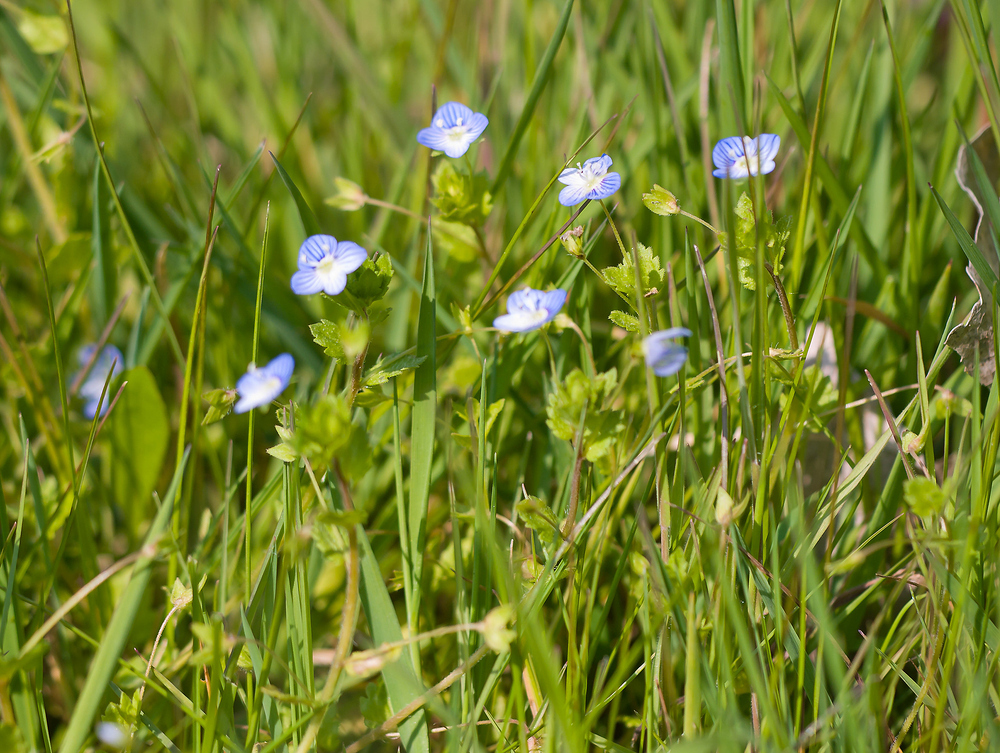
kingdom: Plantae
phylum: Tracheophyta
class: Magnoliopsida
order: Lamiales
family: Plantaginaceae
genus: Veronica
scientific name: Veronica persica
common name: Common field-speedwell
